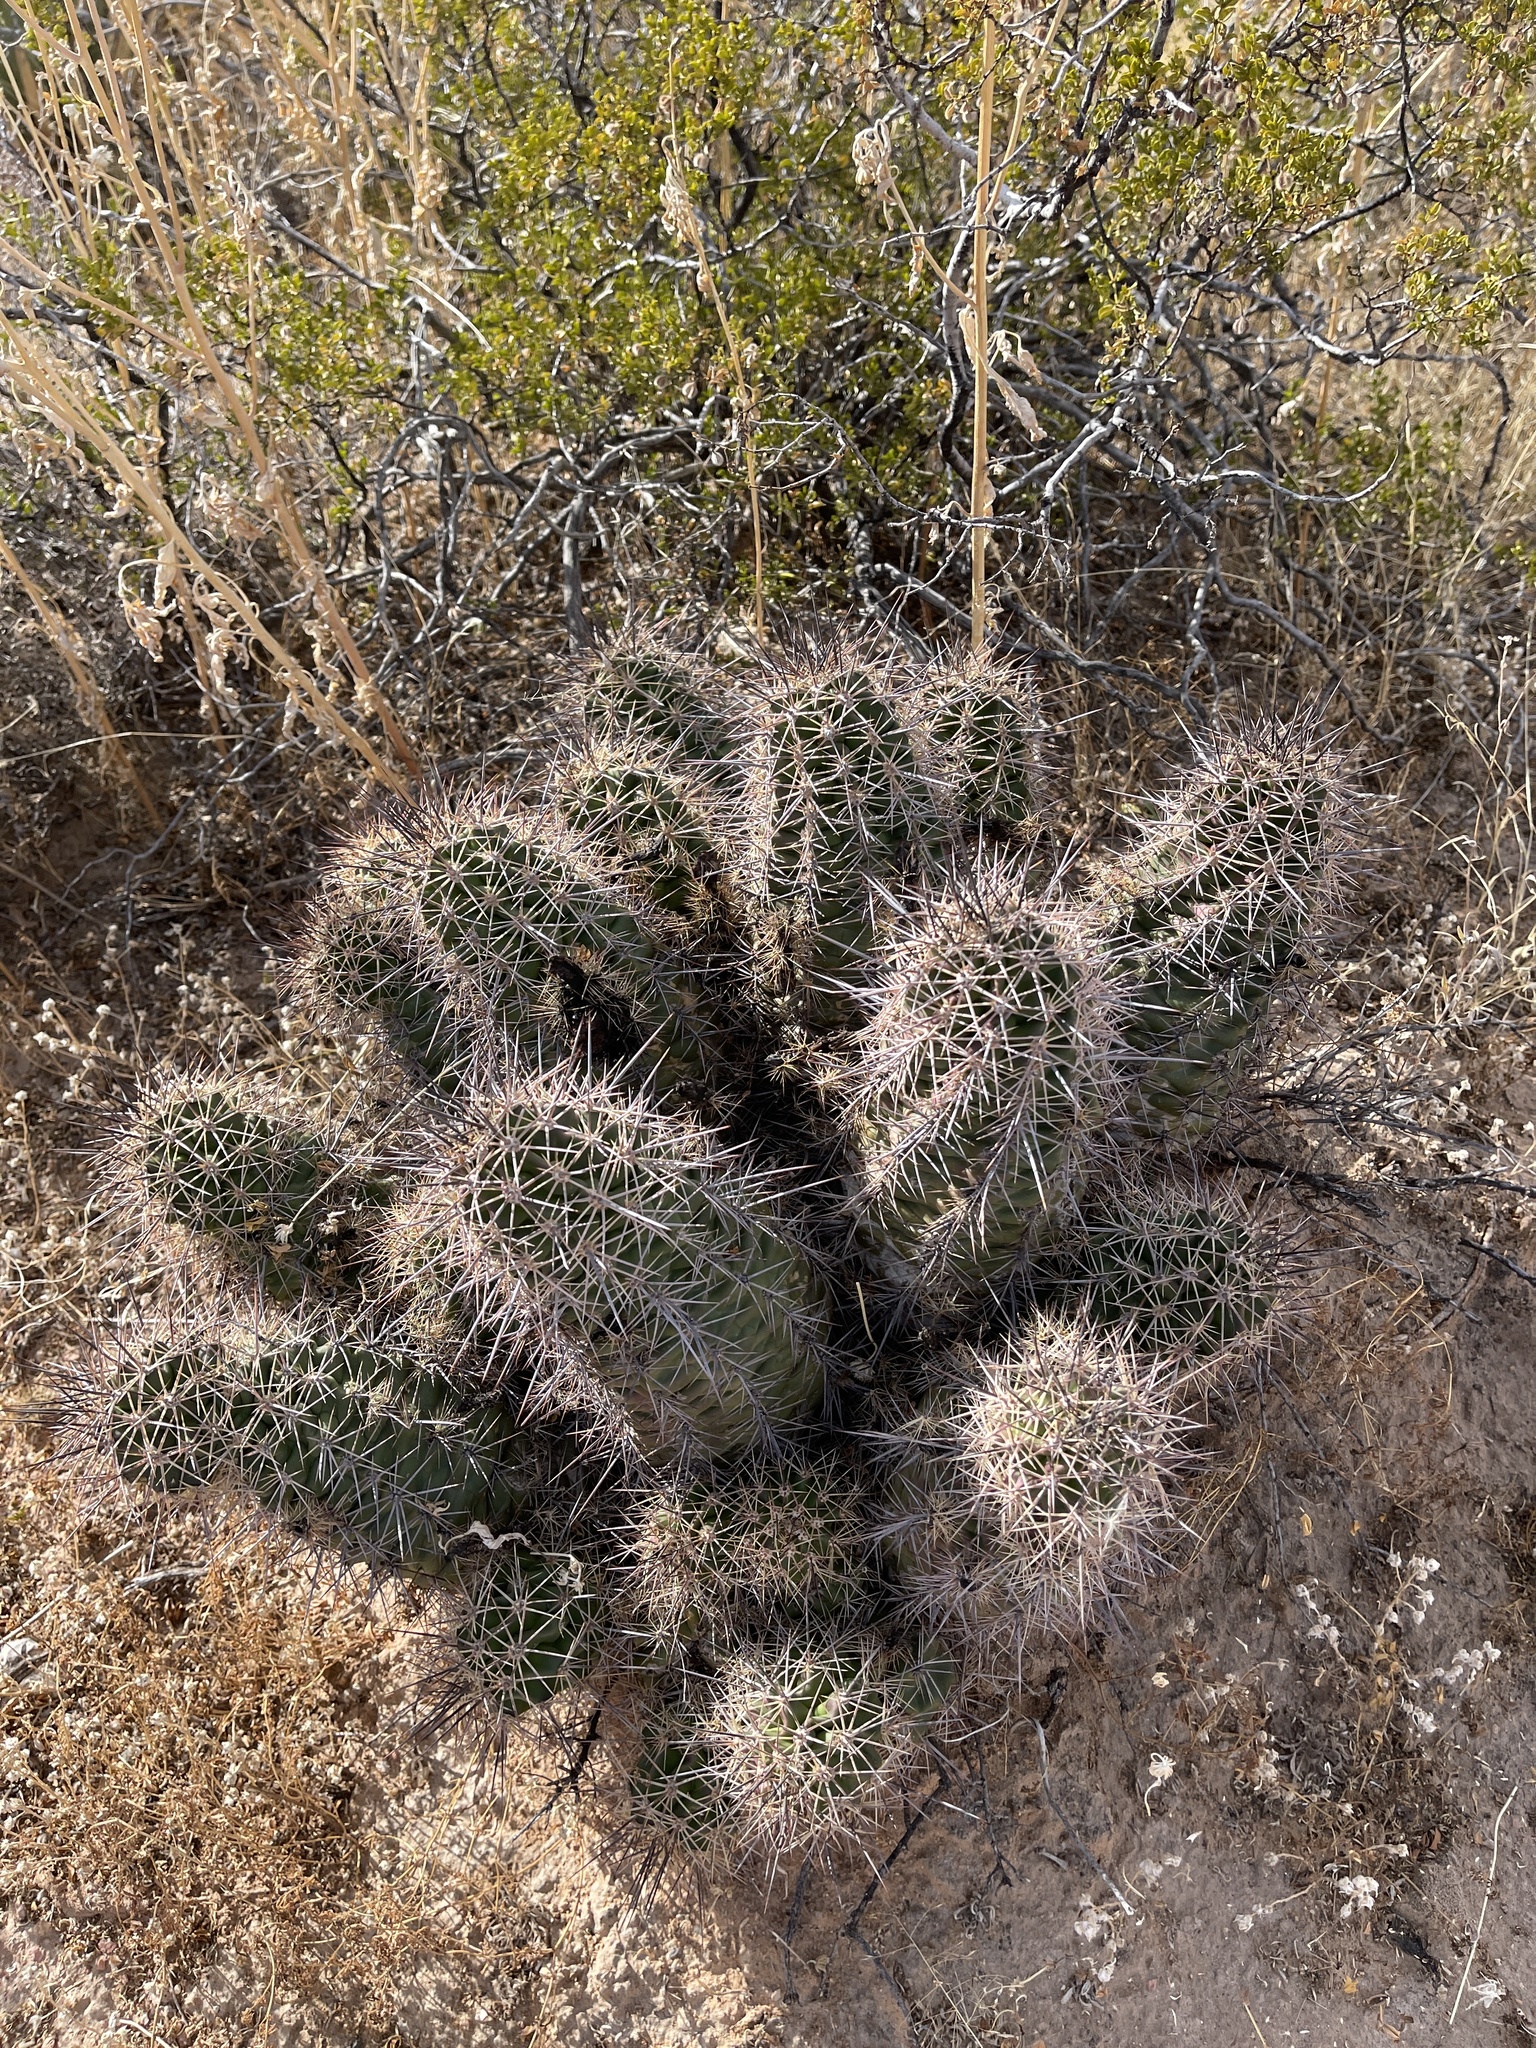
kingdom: Plantae
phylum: Tracheophyta
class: Magnoliopsida
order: Caryophyllales
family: Cactaceae
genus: Echinocereus
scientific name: Echinocereus coccineus
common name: Scarlet hedgehog cactus
